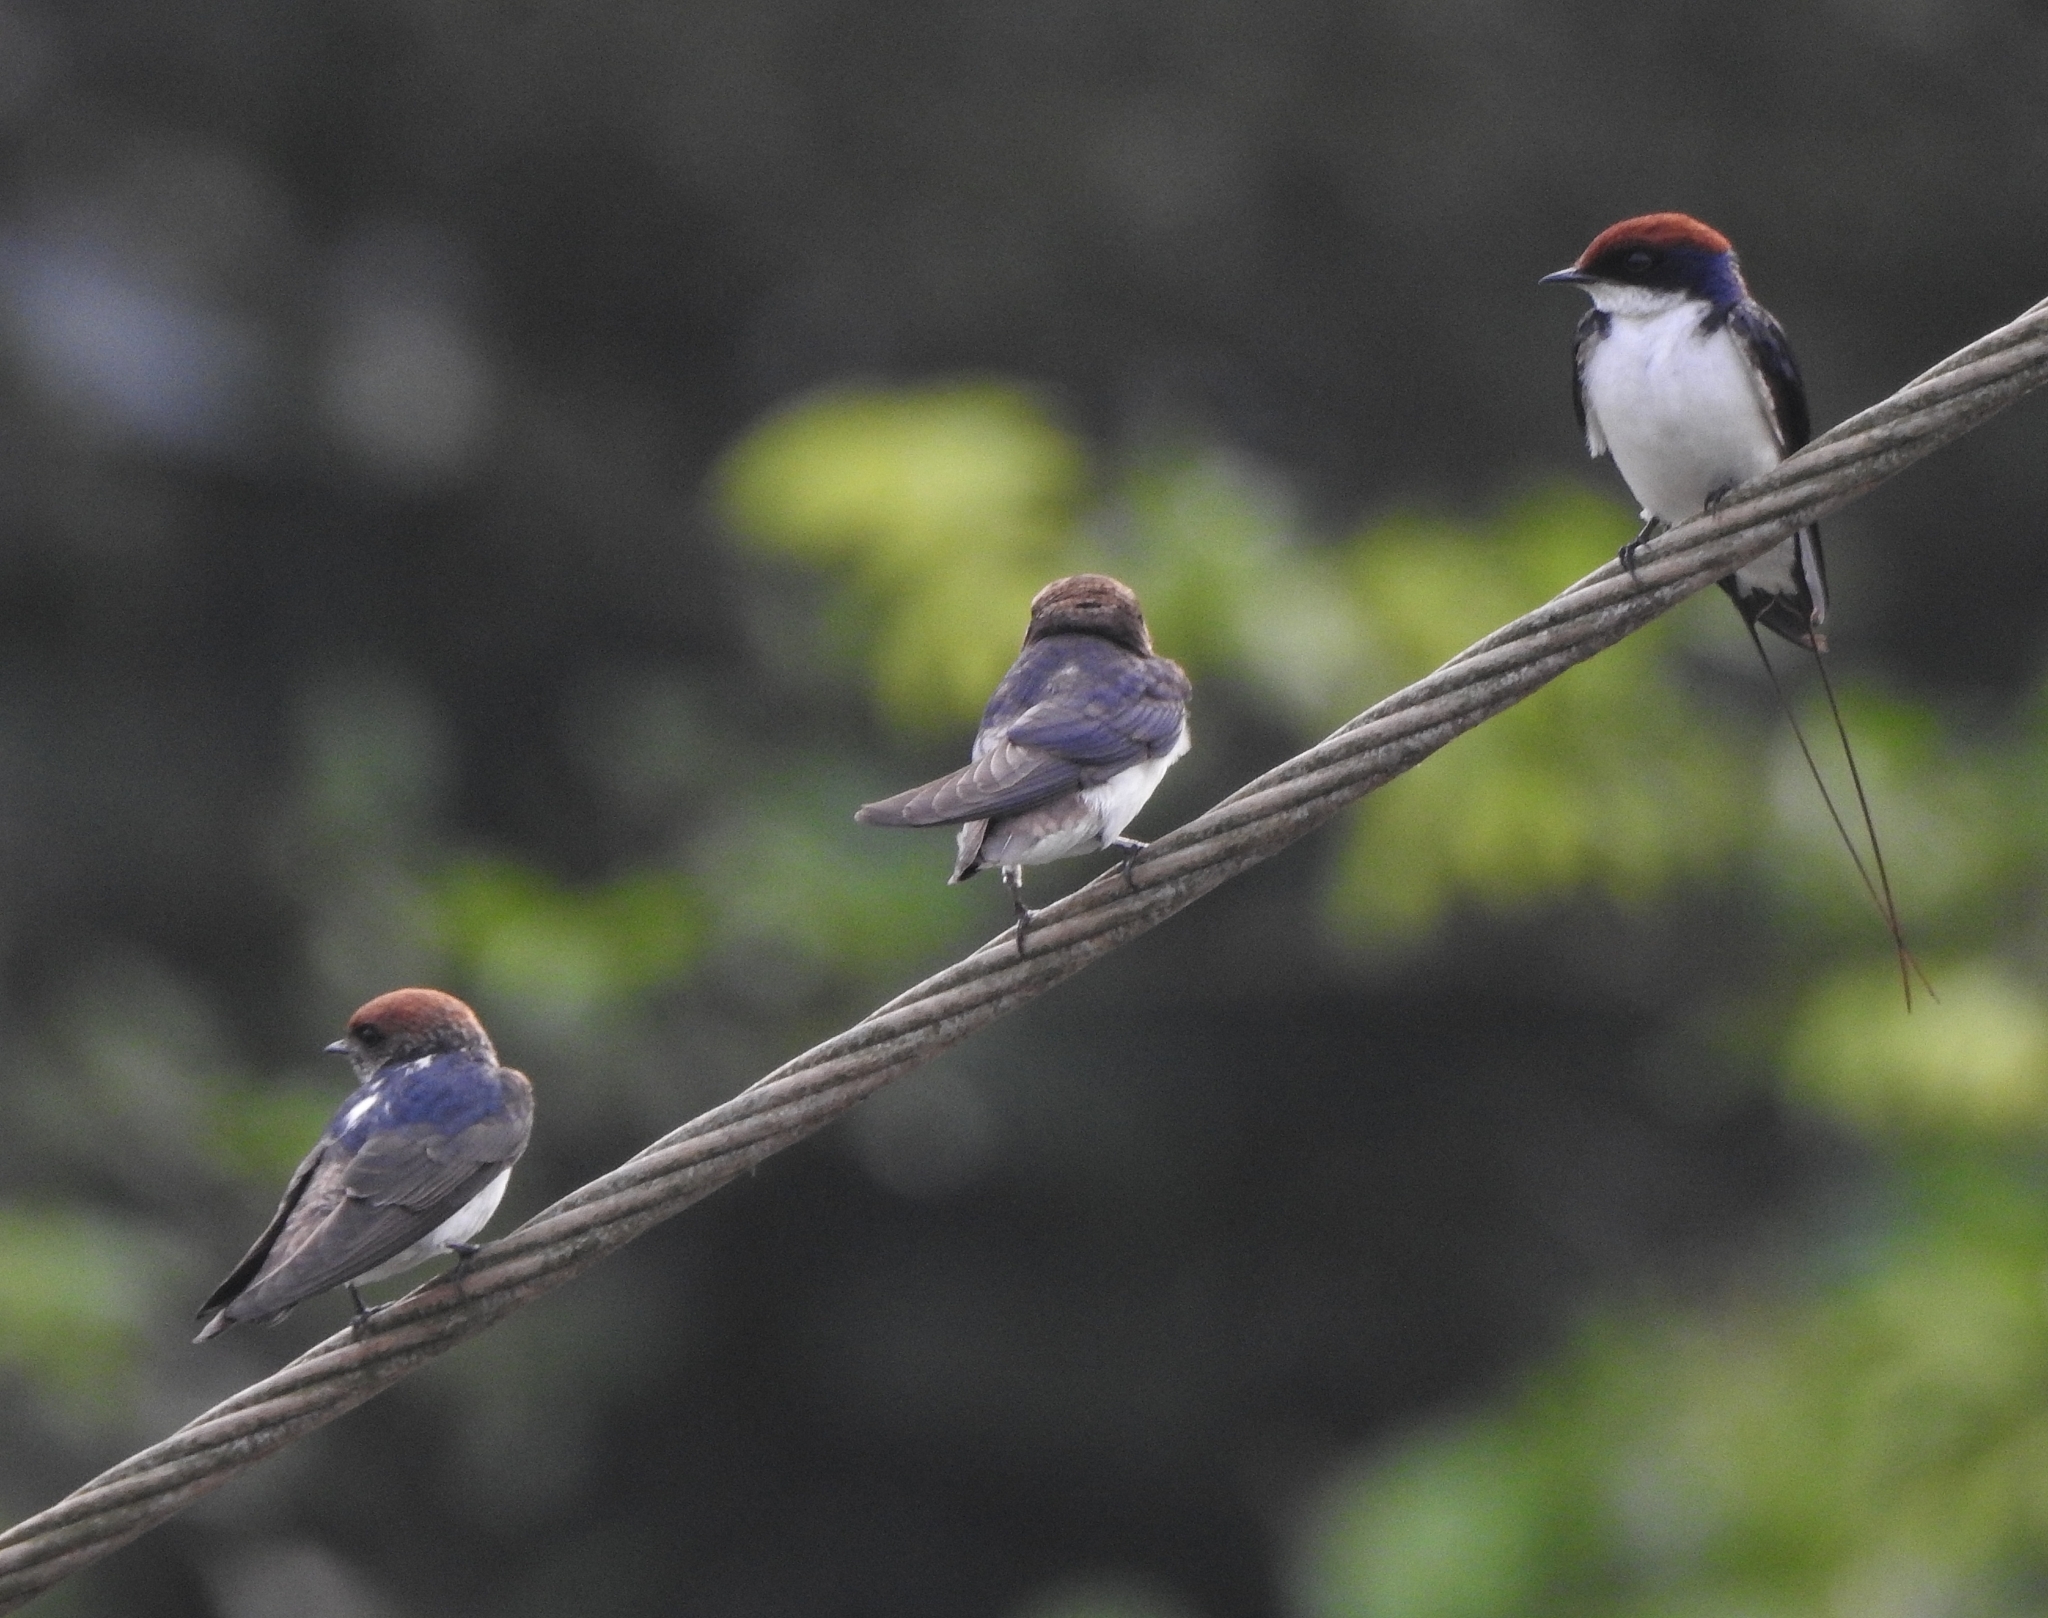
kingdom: Animalia
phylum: Chordata
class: Aves
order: Passeriformes
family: Hirundinidae
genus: Hirundo
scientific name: Hirundo smithii
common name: Wire-tailed swallow
